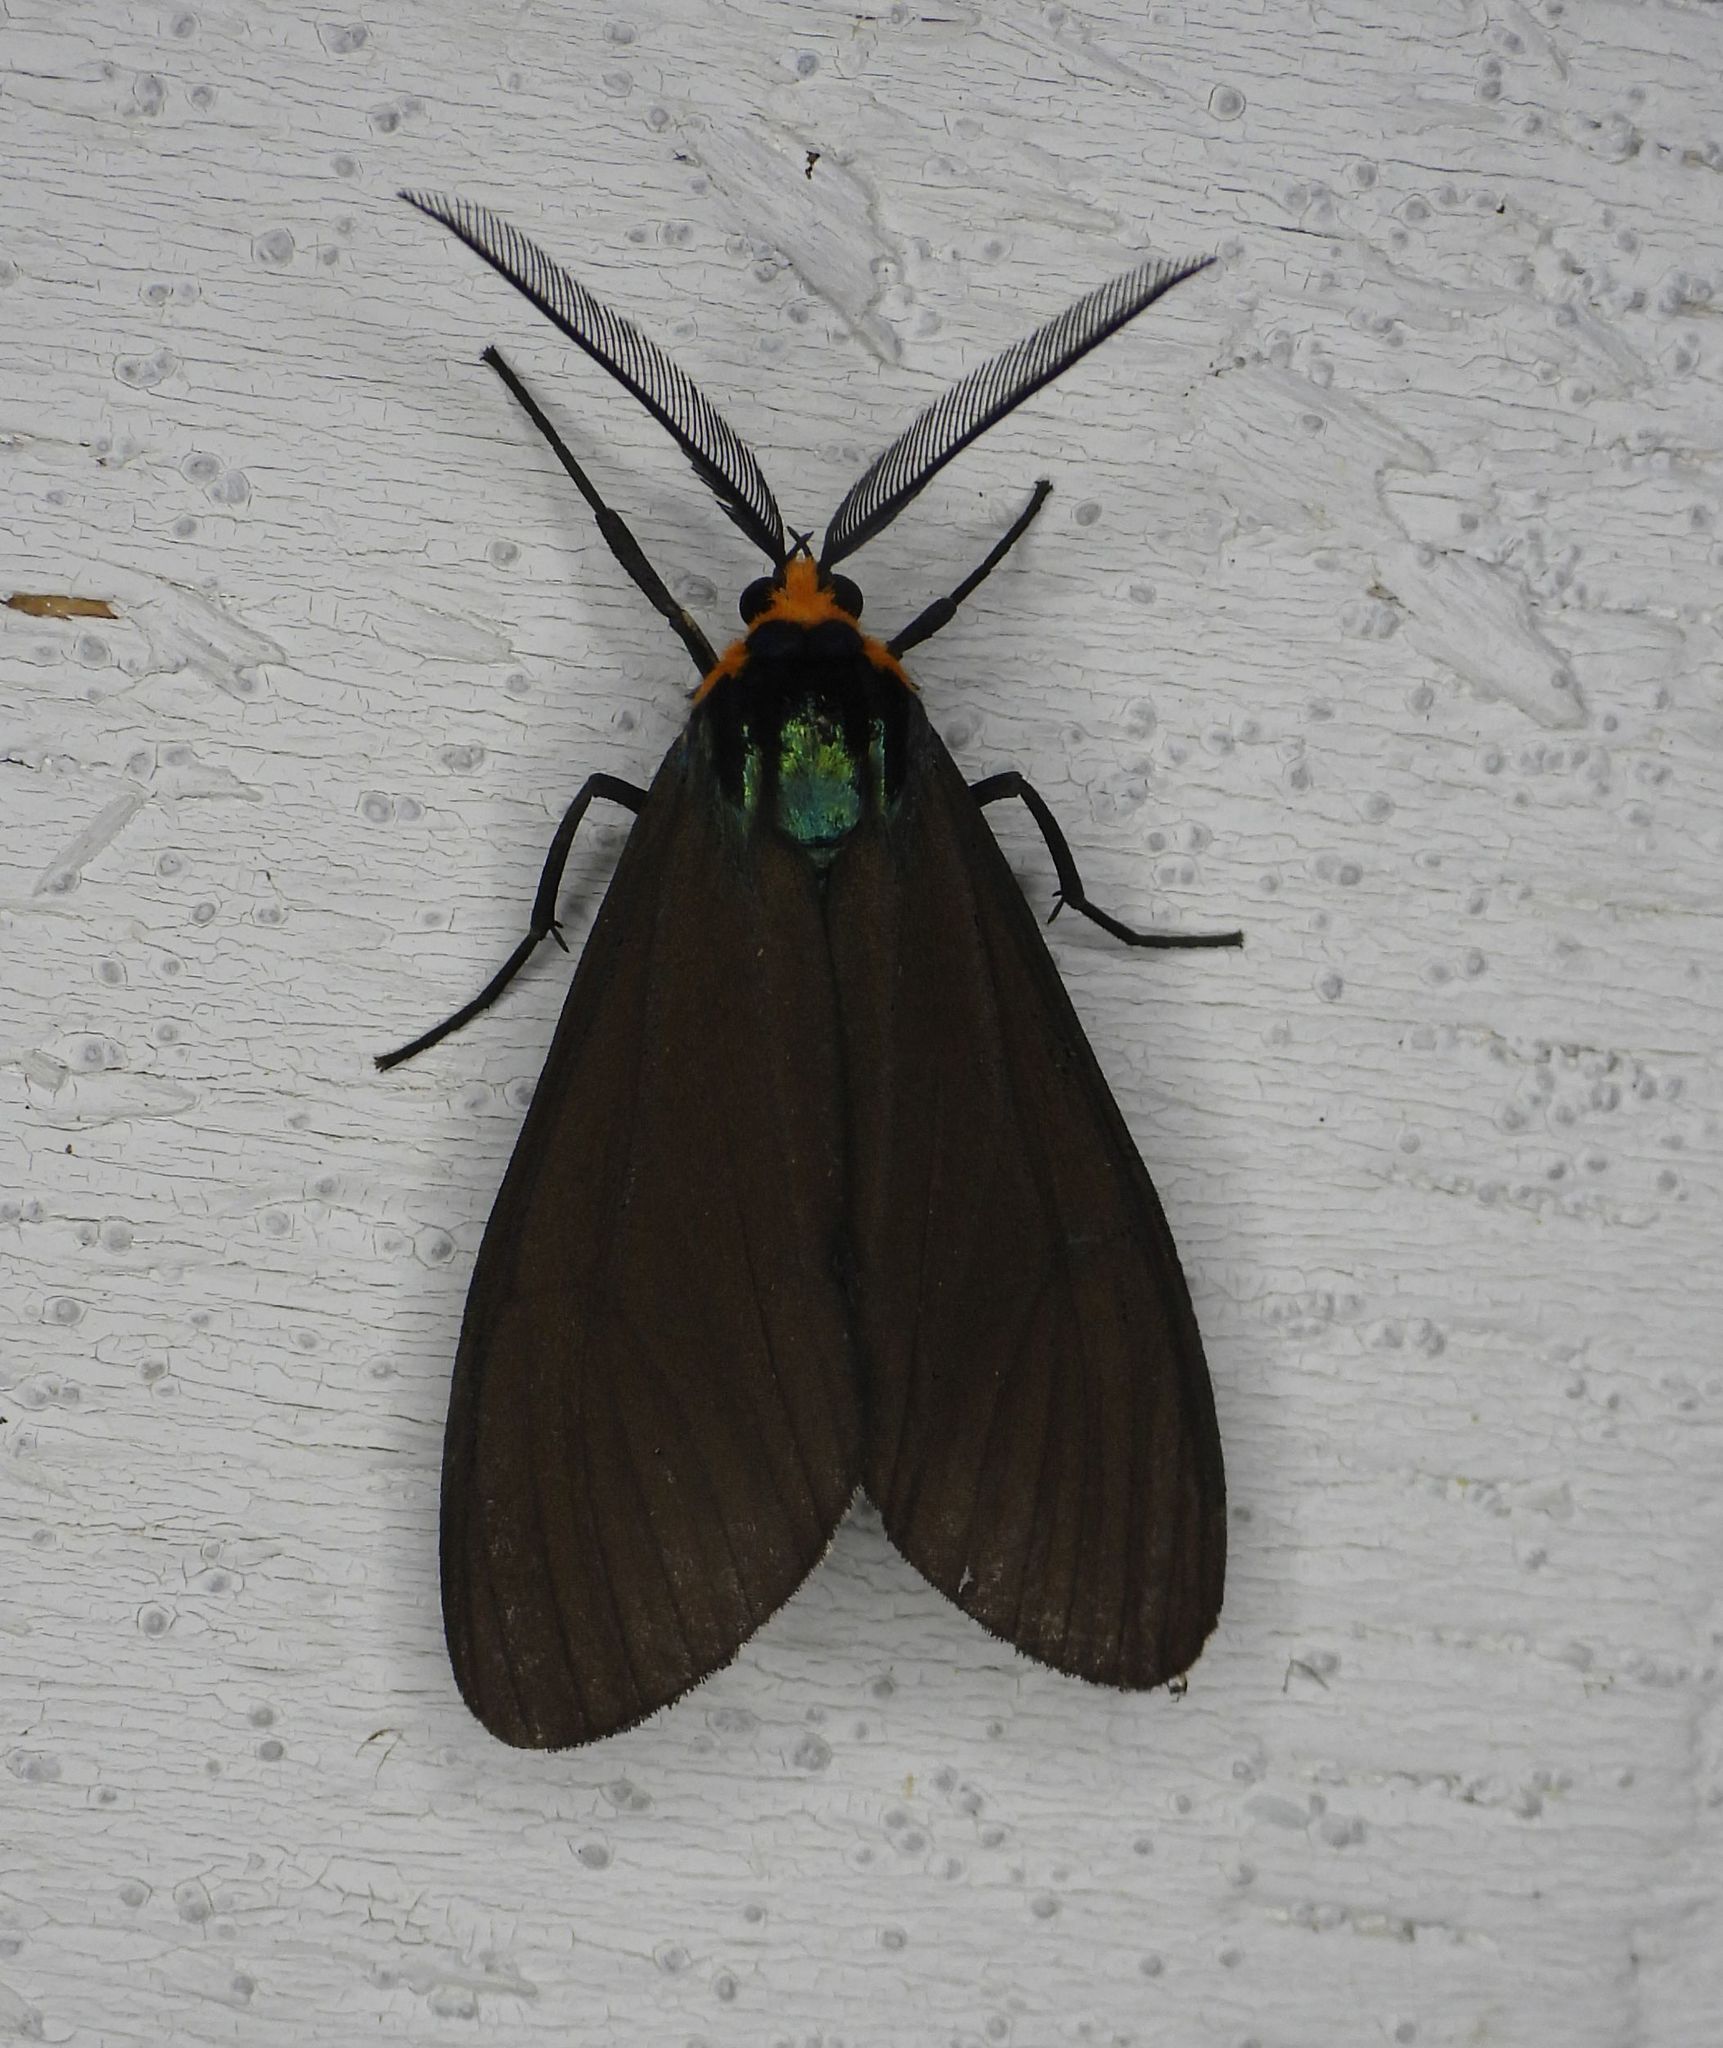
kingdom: Animalia
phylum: Arthropoda
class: Insecta
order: Lepidoptera
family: Erebidae
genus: Ctenucha
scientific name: Ctenucha virginica
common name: Virginia ctenucha moth
